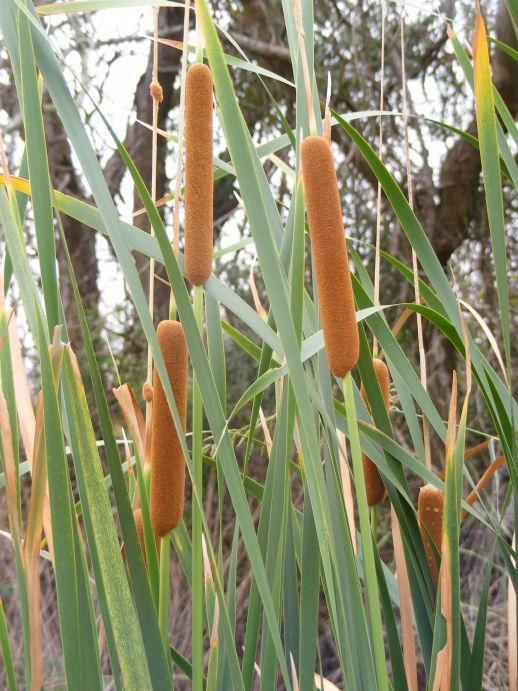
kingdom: Plantae
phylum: Tracheophyta
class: Liliopsida
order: Poales
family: Typhaceae
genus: Typha
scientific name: Typha capensis
